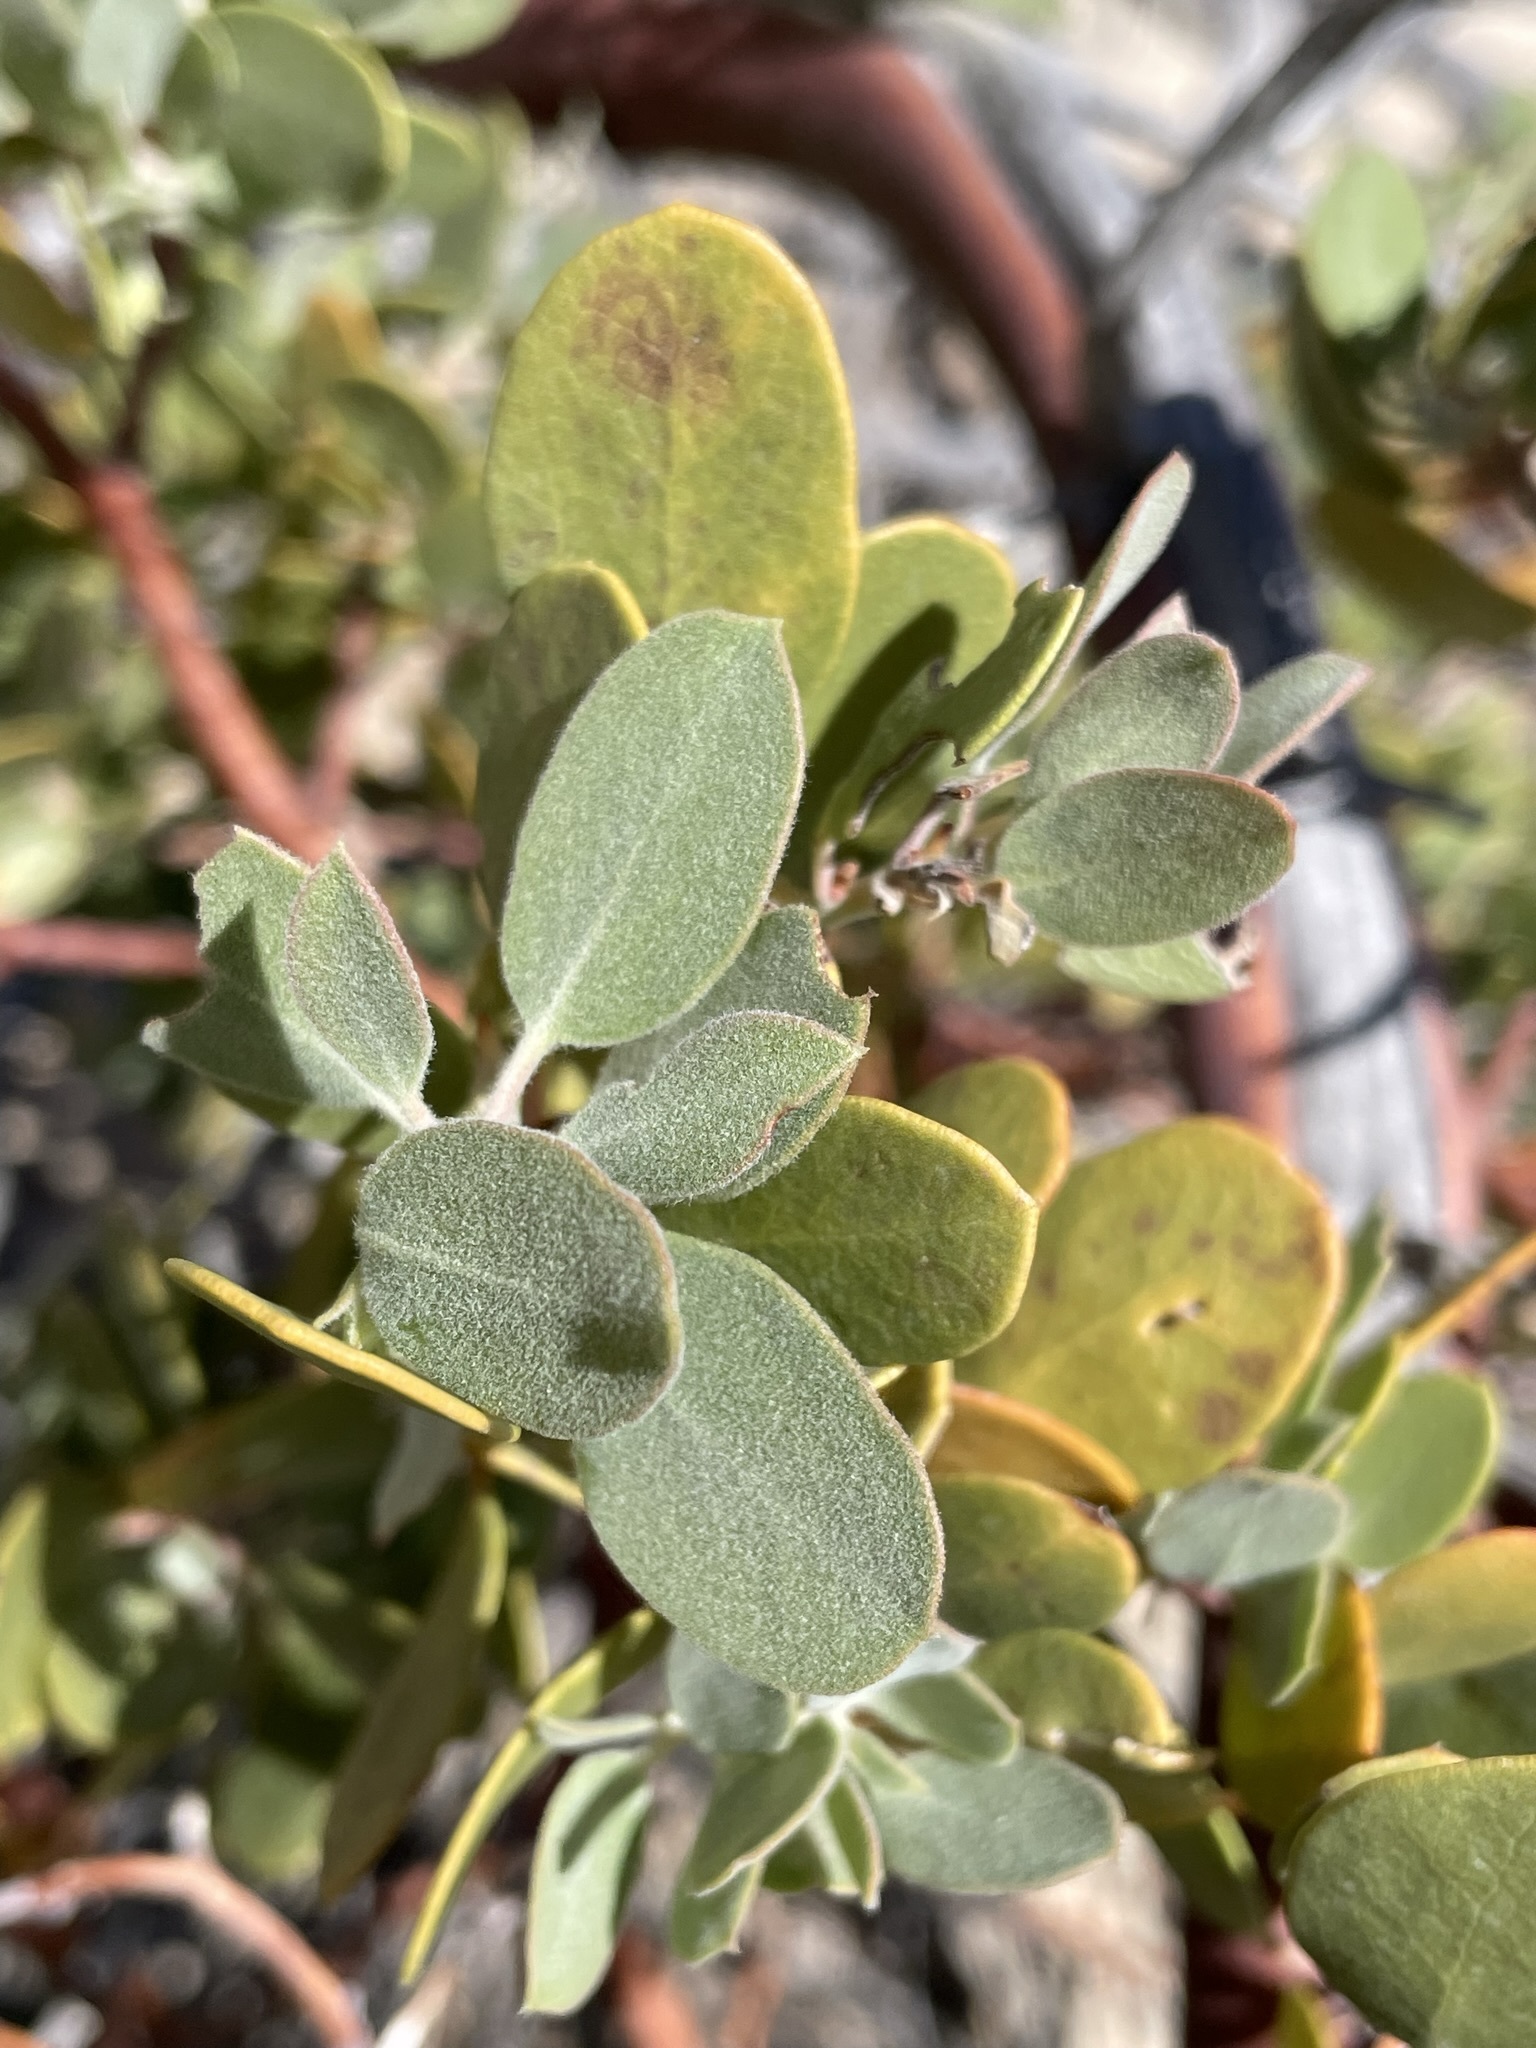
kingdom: Plantae
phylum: Tracheophyta
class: Magnoliopsida
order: Ericales
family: Ericaceae
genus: Arctostaphylos
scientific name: Arctostaphylos pungens
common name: Mexican manzanita
